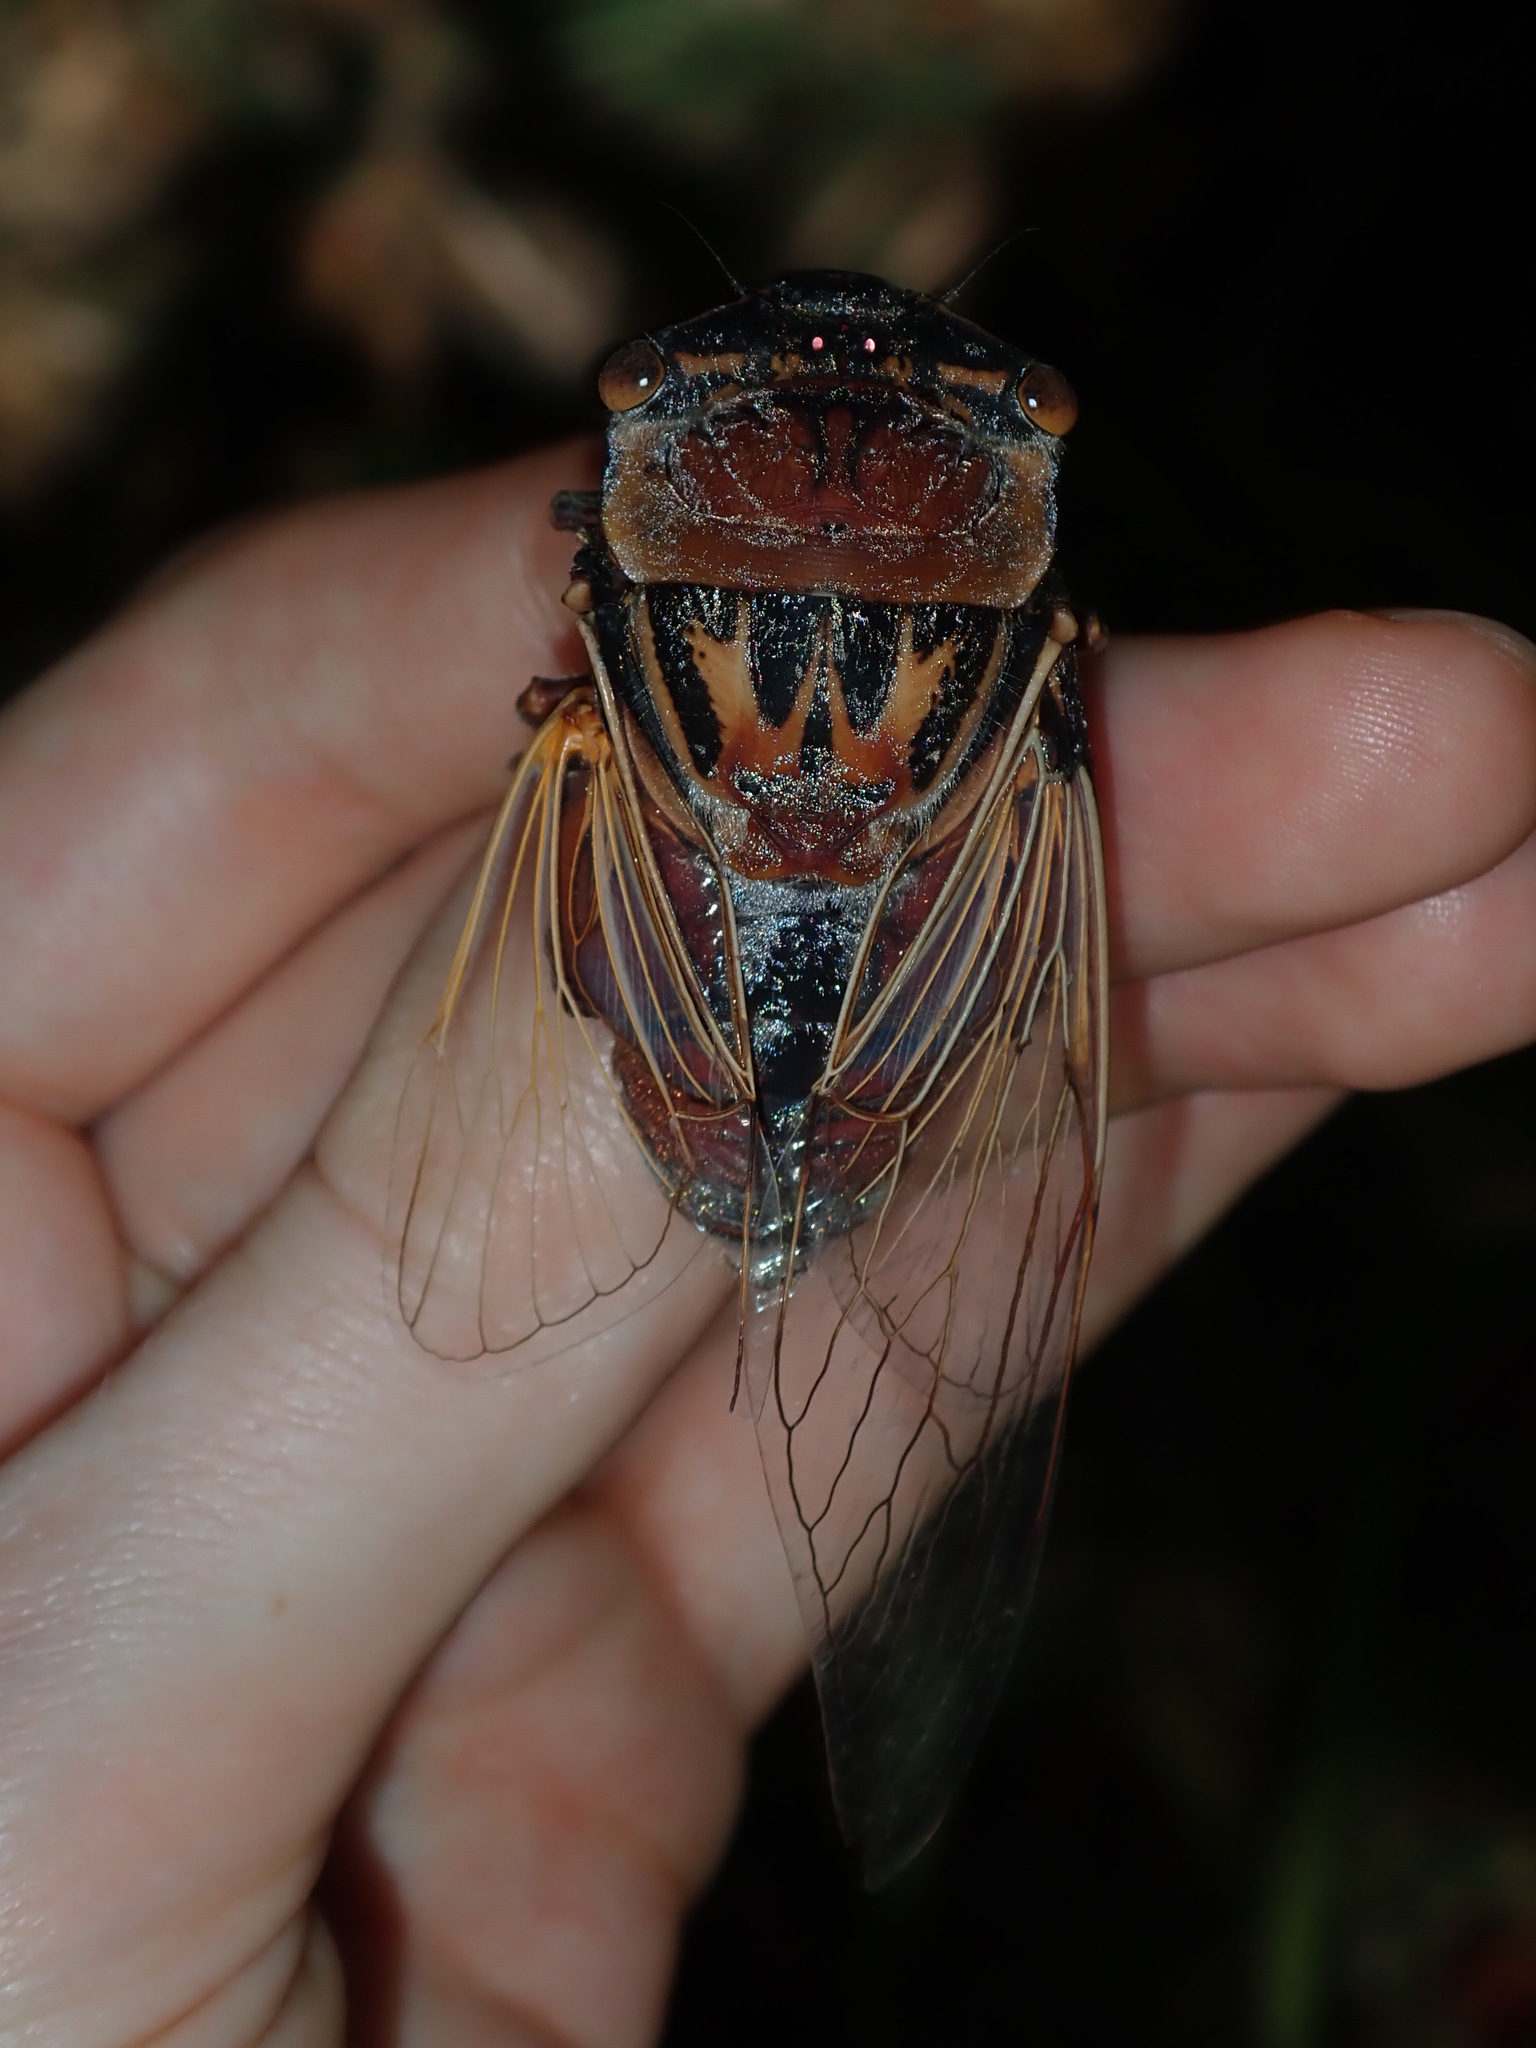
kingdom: Animalia
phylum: Arthropoda
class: Insecta
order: Hemiptera
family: Cicadidae
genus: Thopha
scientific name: Thopha saccata
